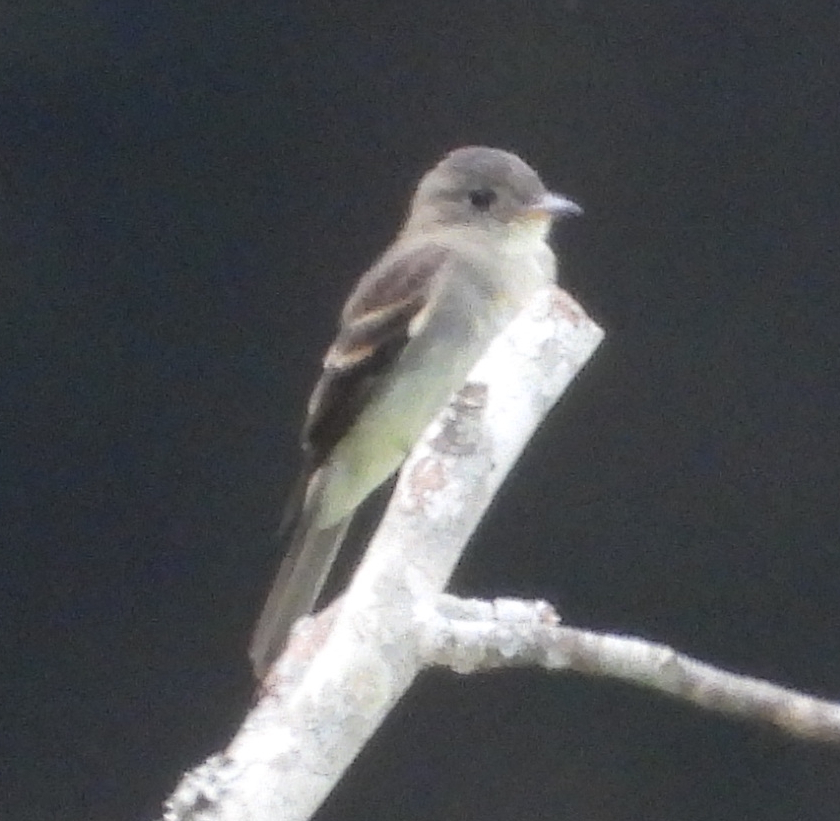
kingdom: Animalia
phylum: Chordata
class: Aves
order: Passeriformes
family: Tyrannidae
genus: Contopus
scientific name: Contopus virens
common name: Eastern wood-pewee
